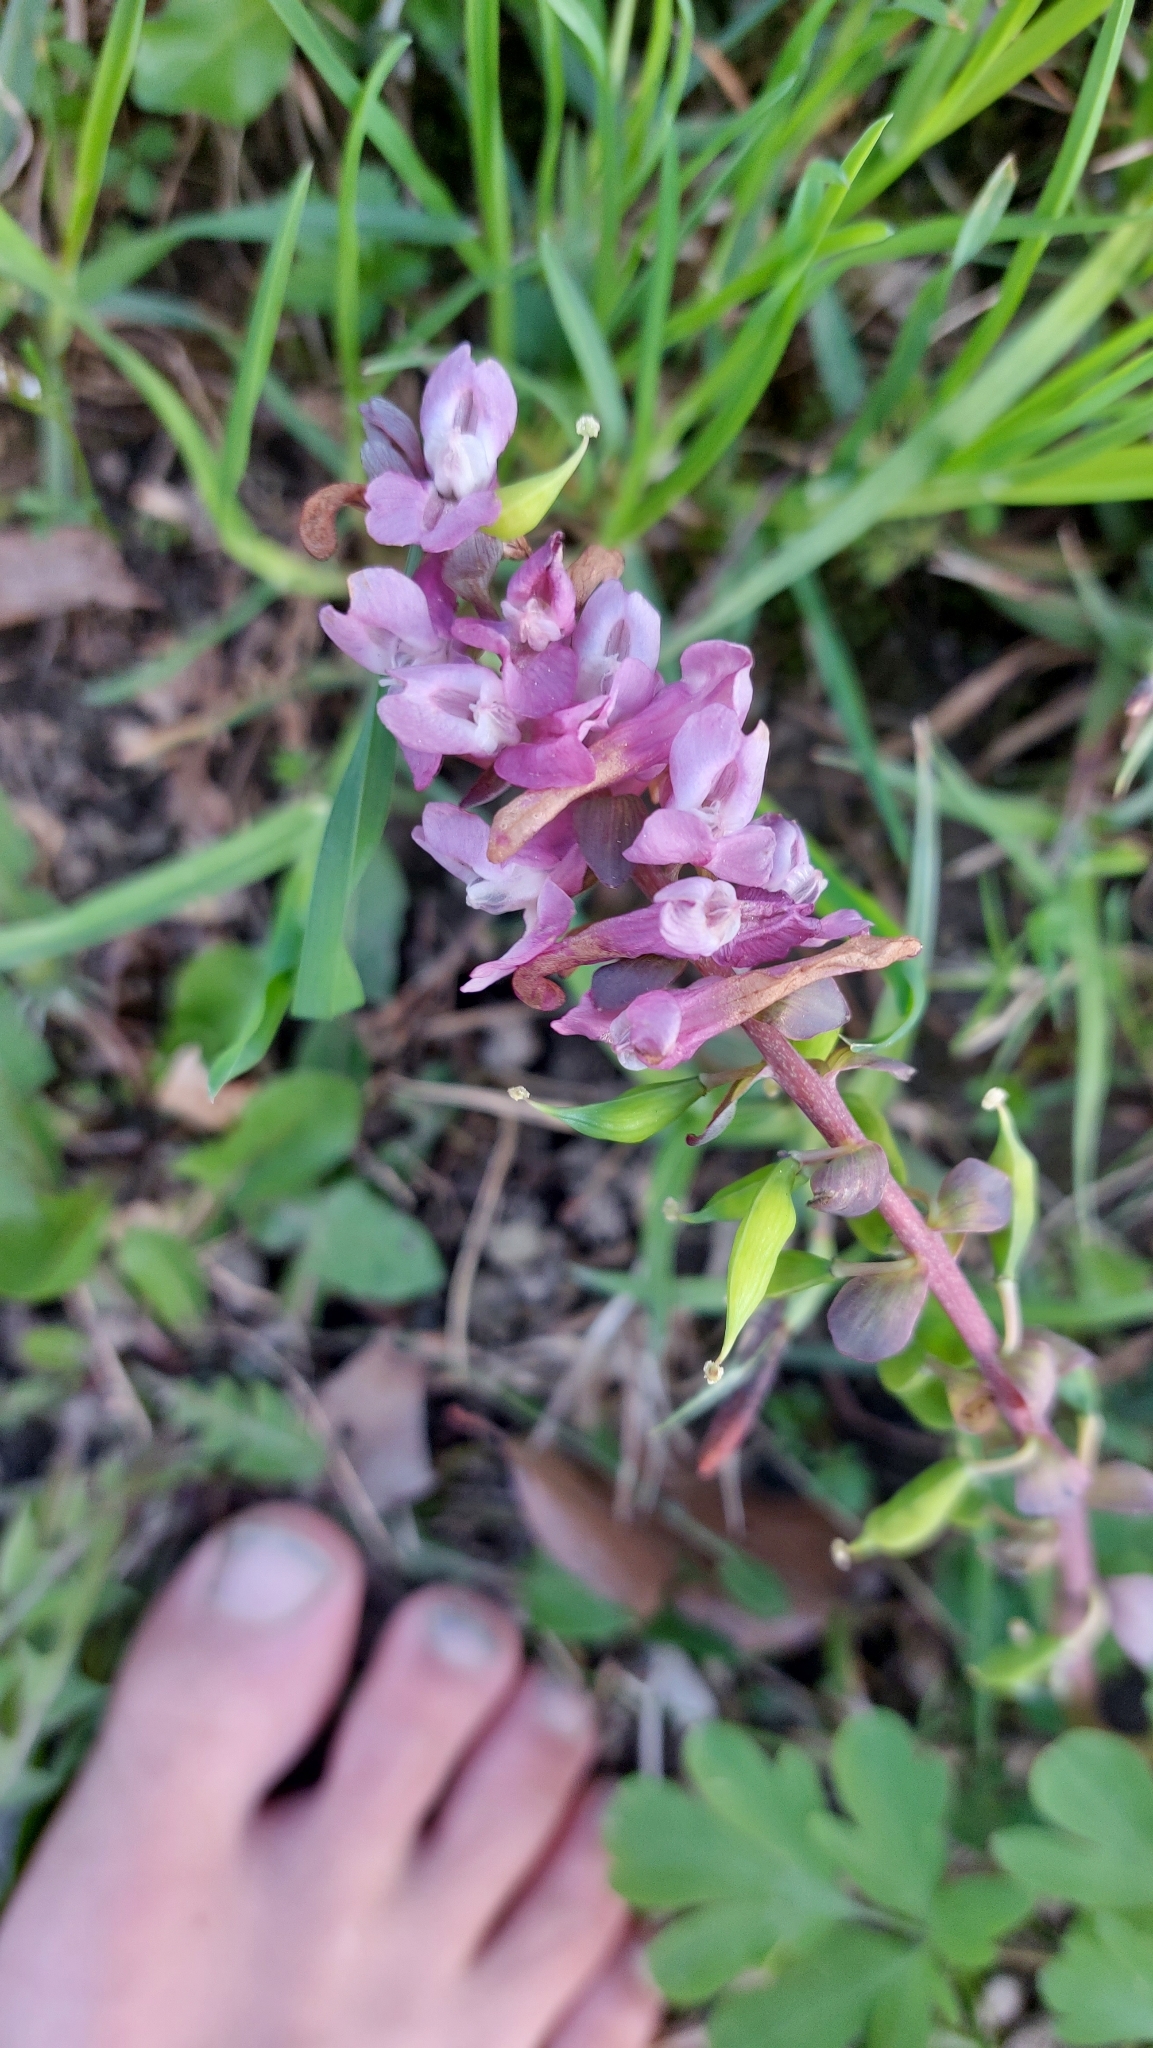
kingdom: Plantae
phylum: Tracheophyta
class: Magnoliopsida
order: Ranunculales
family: Papaveraceae
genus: Corydalis
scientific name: Corydalis cava
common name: Hollowroot
